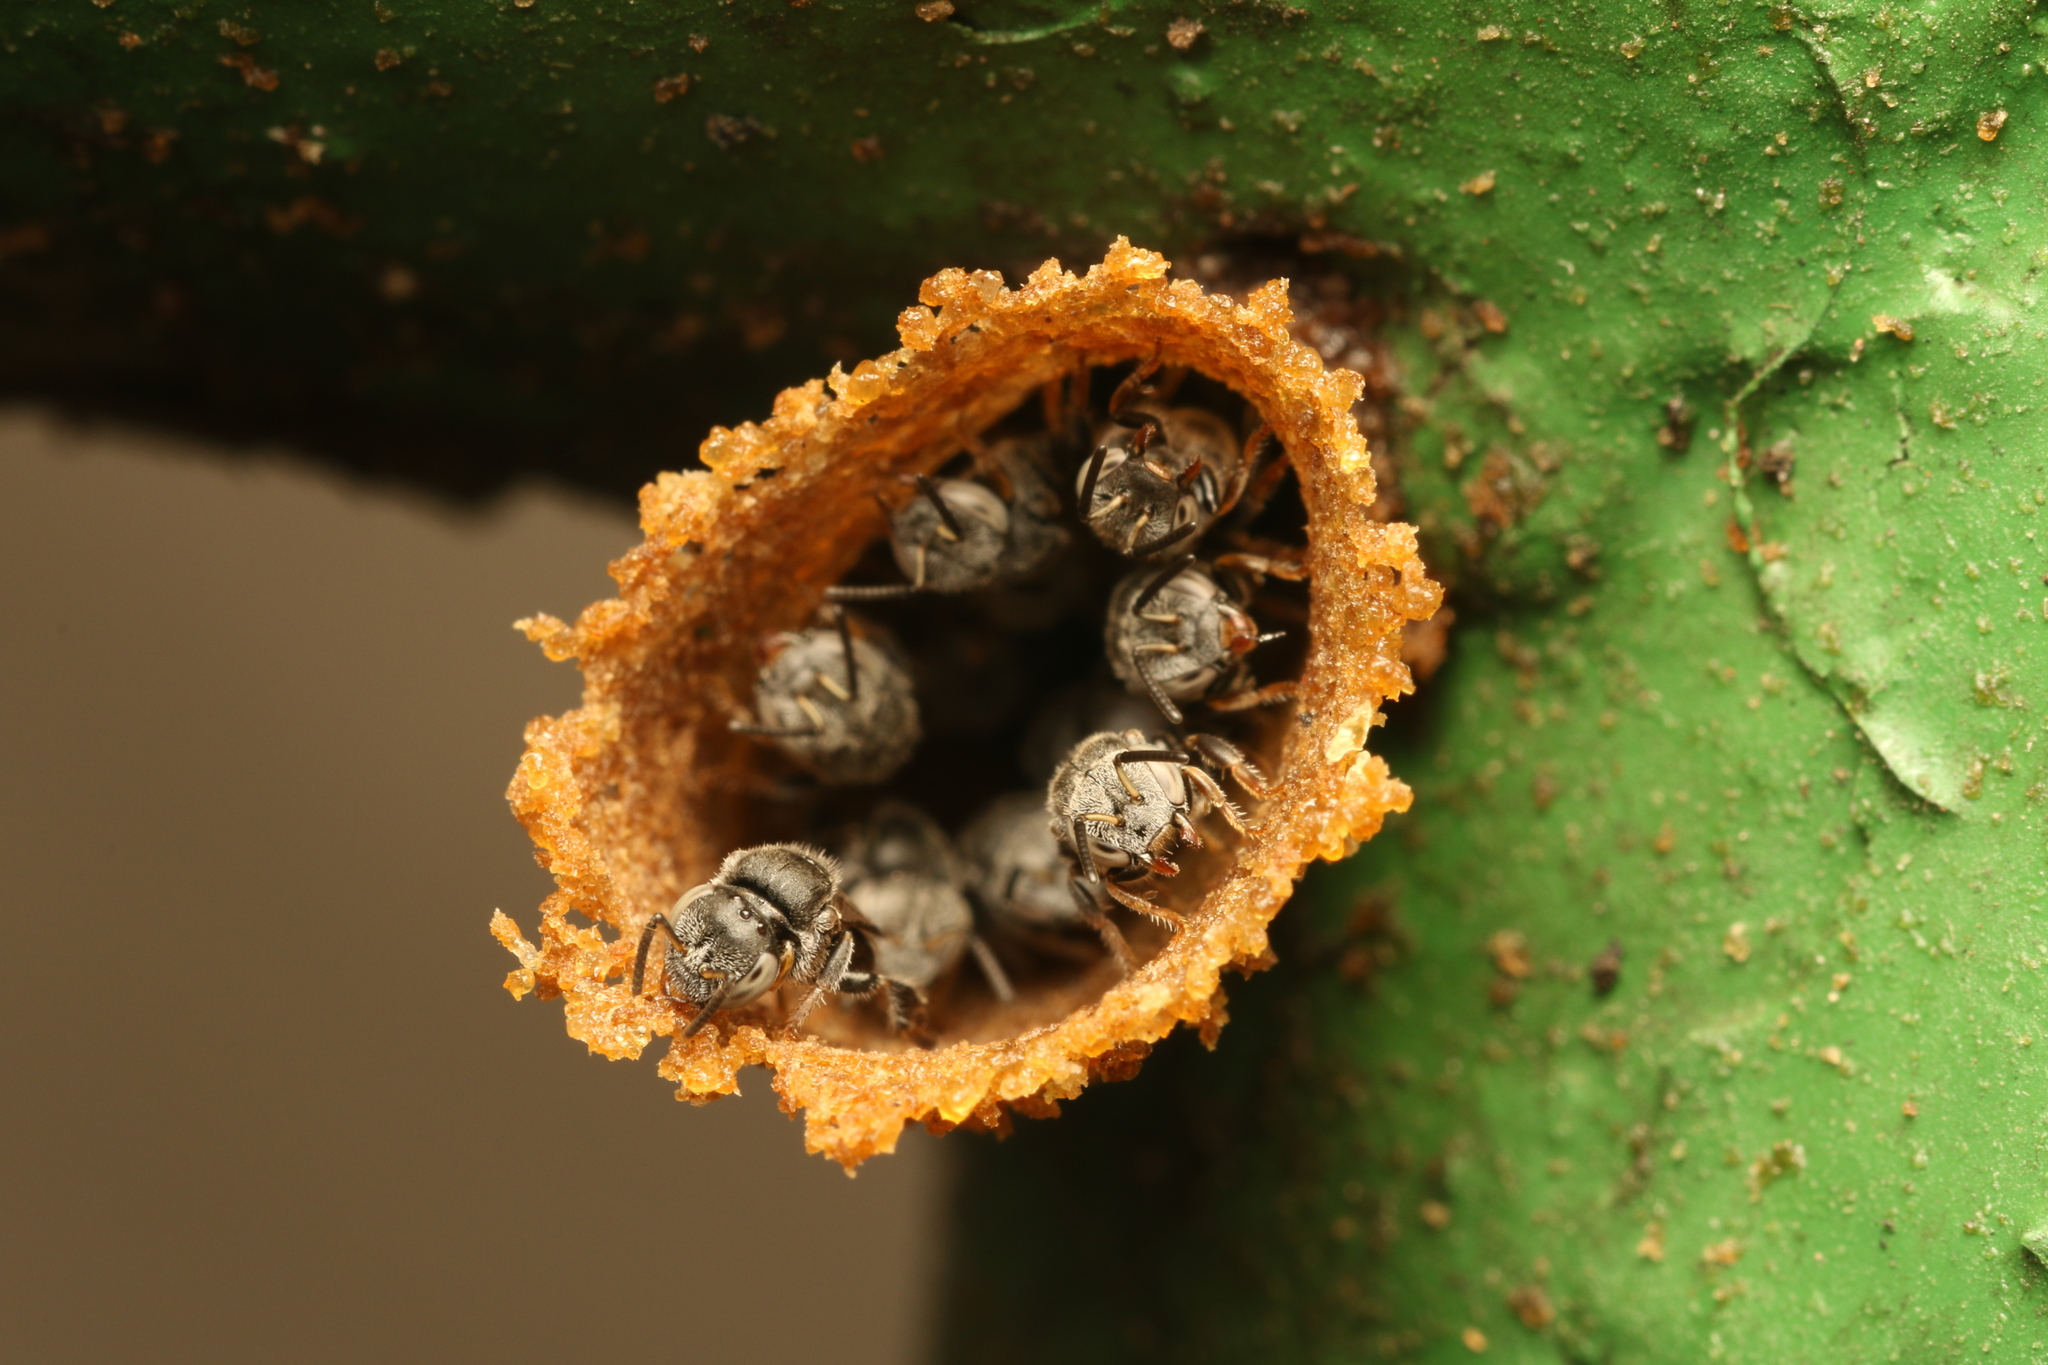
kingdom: Animalia
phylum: Arthropoda
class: Insecta
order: Hymenoptera
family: Apidae
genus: Friesella
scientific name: Friesella schrottkyi
